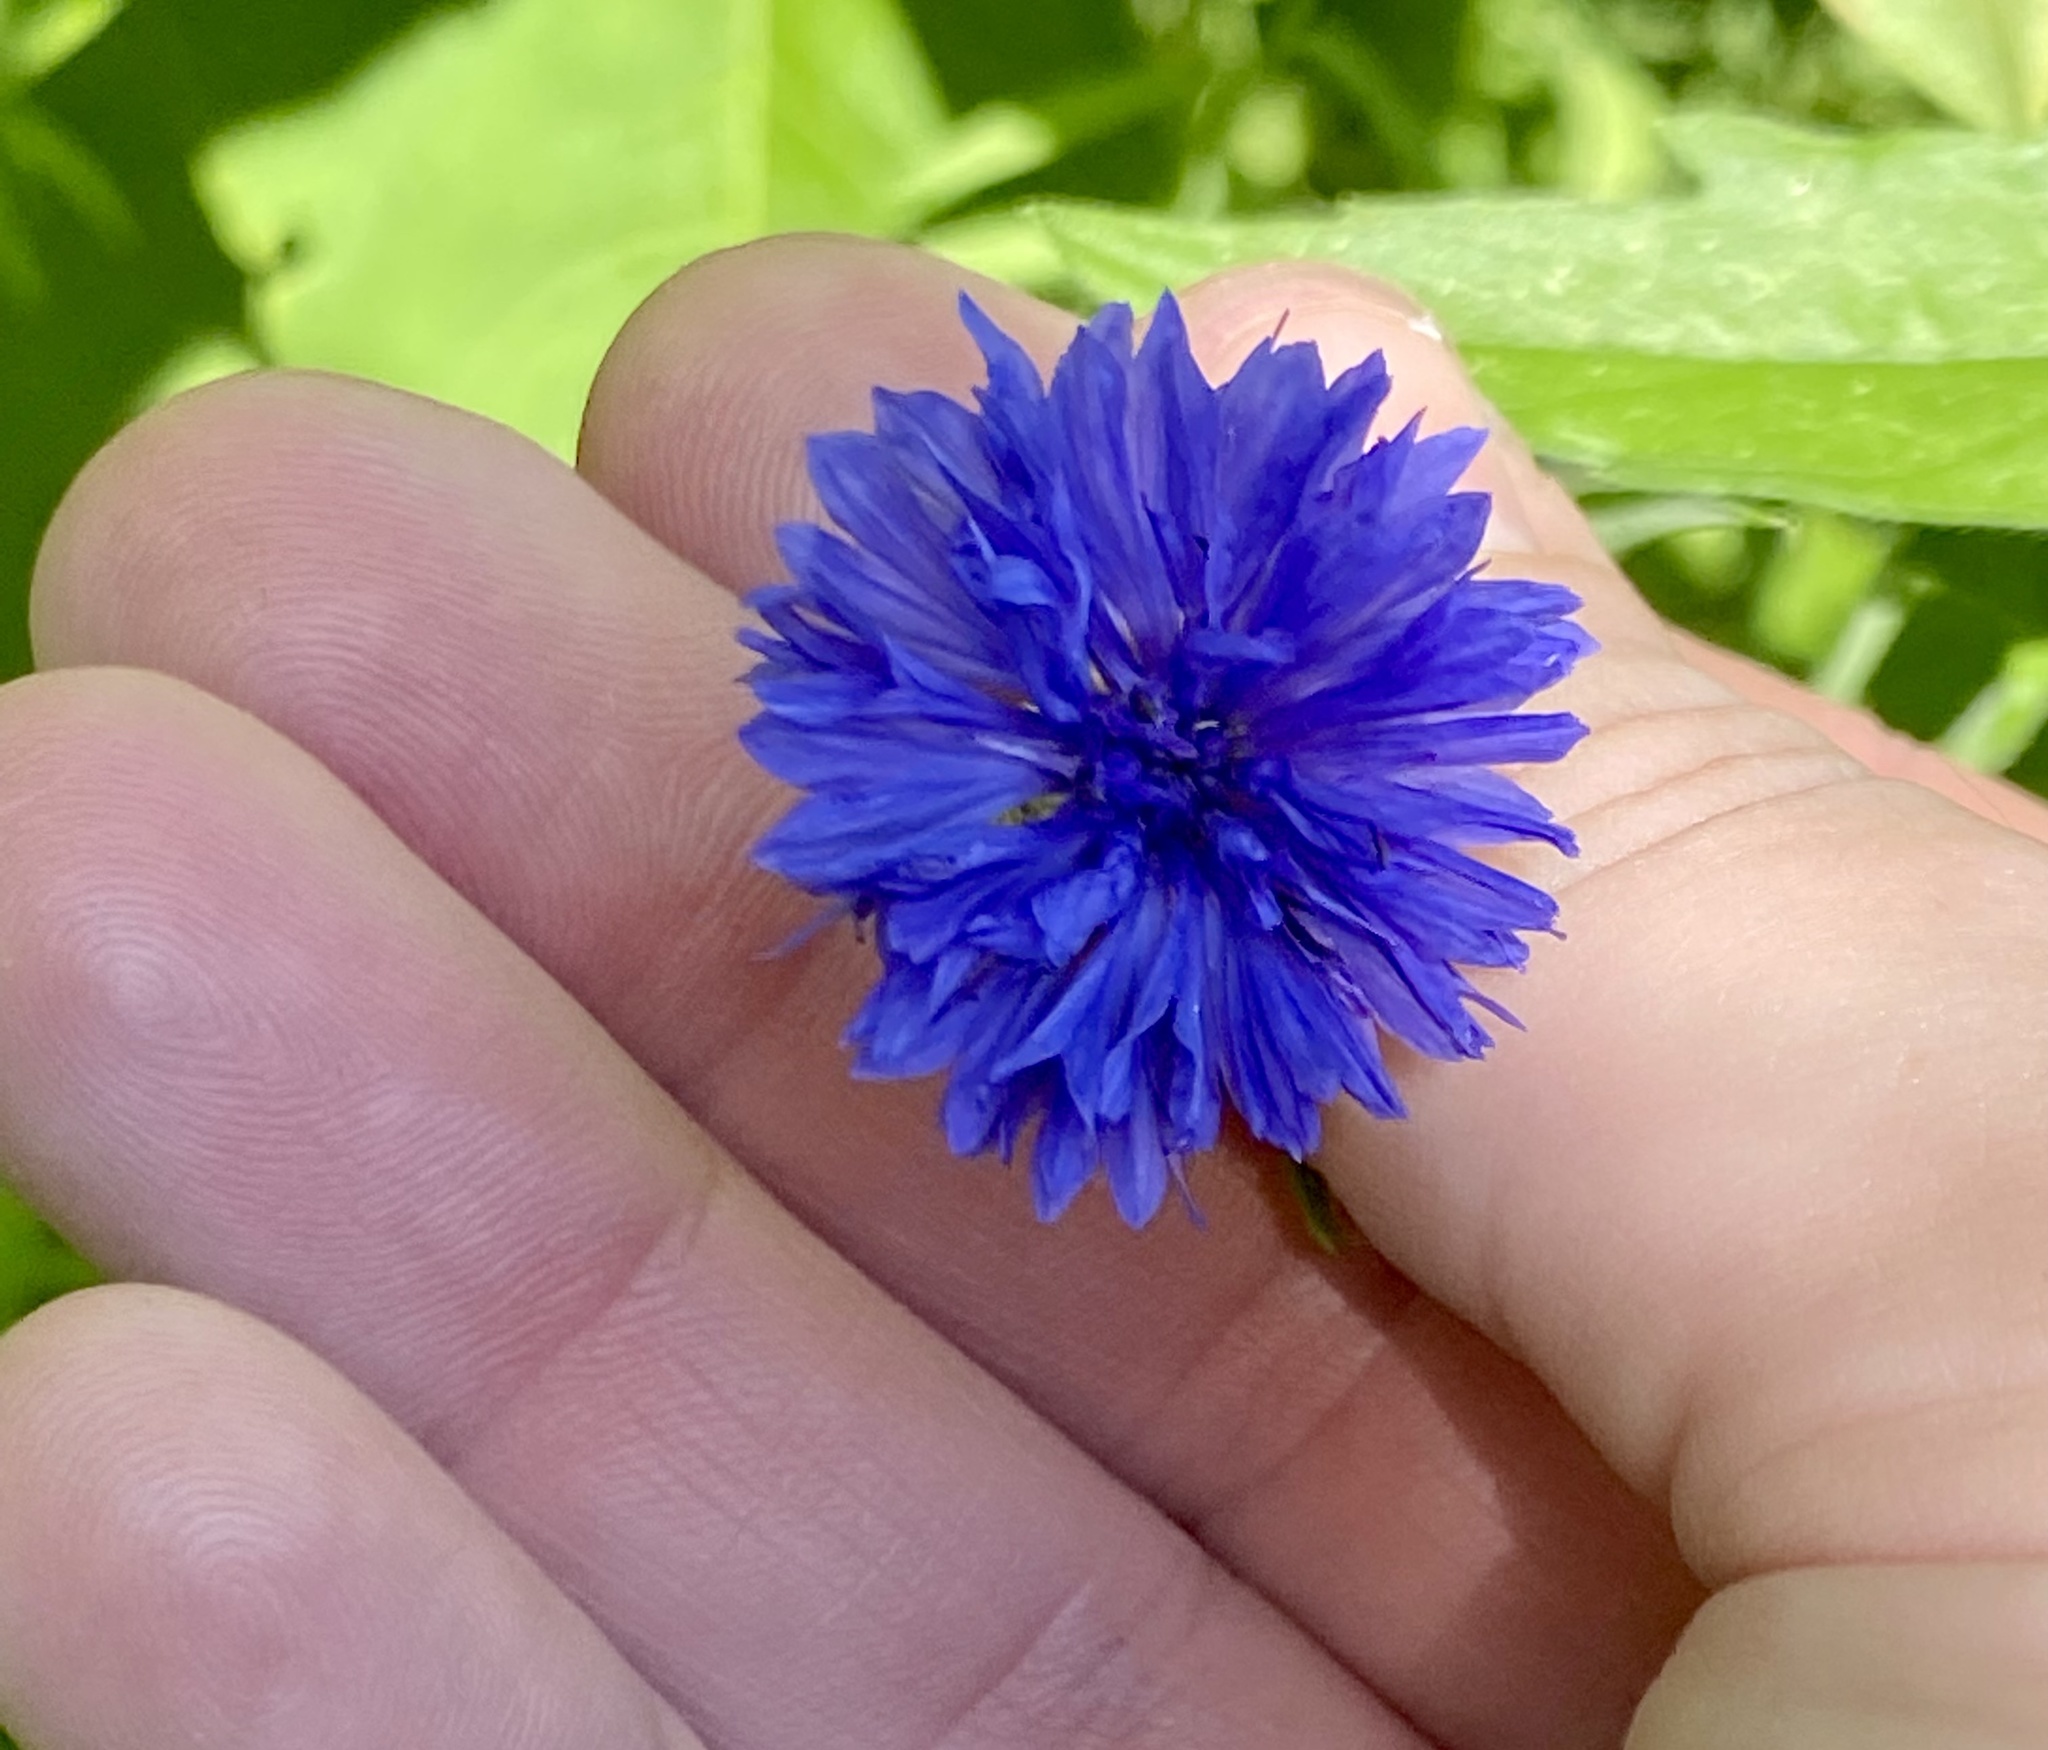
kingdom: Plantae
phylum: Tracheophyta
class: Magnoliopsida
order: Asterales
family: Asteraceae
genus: Centaurea
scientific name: Centaurea cyanus
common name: Cornflower
